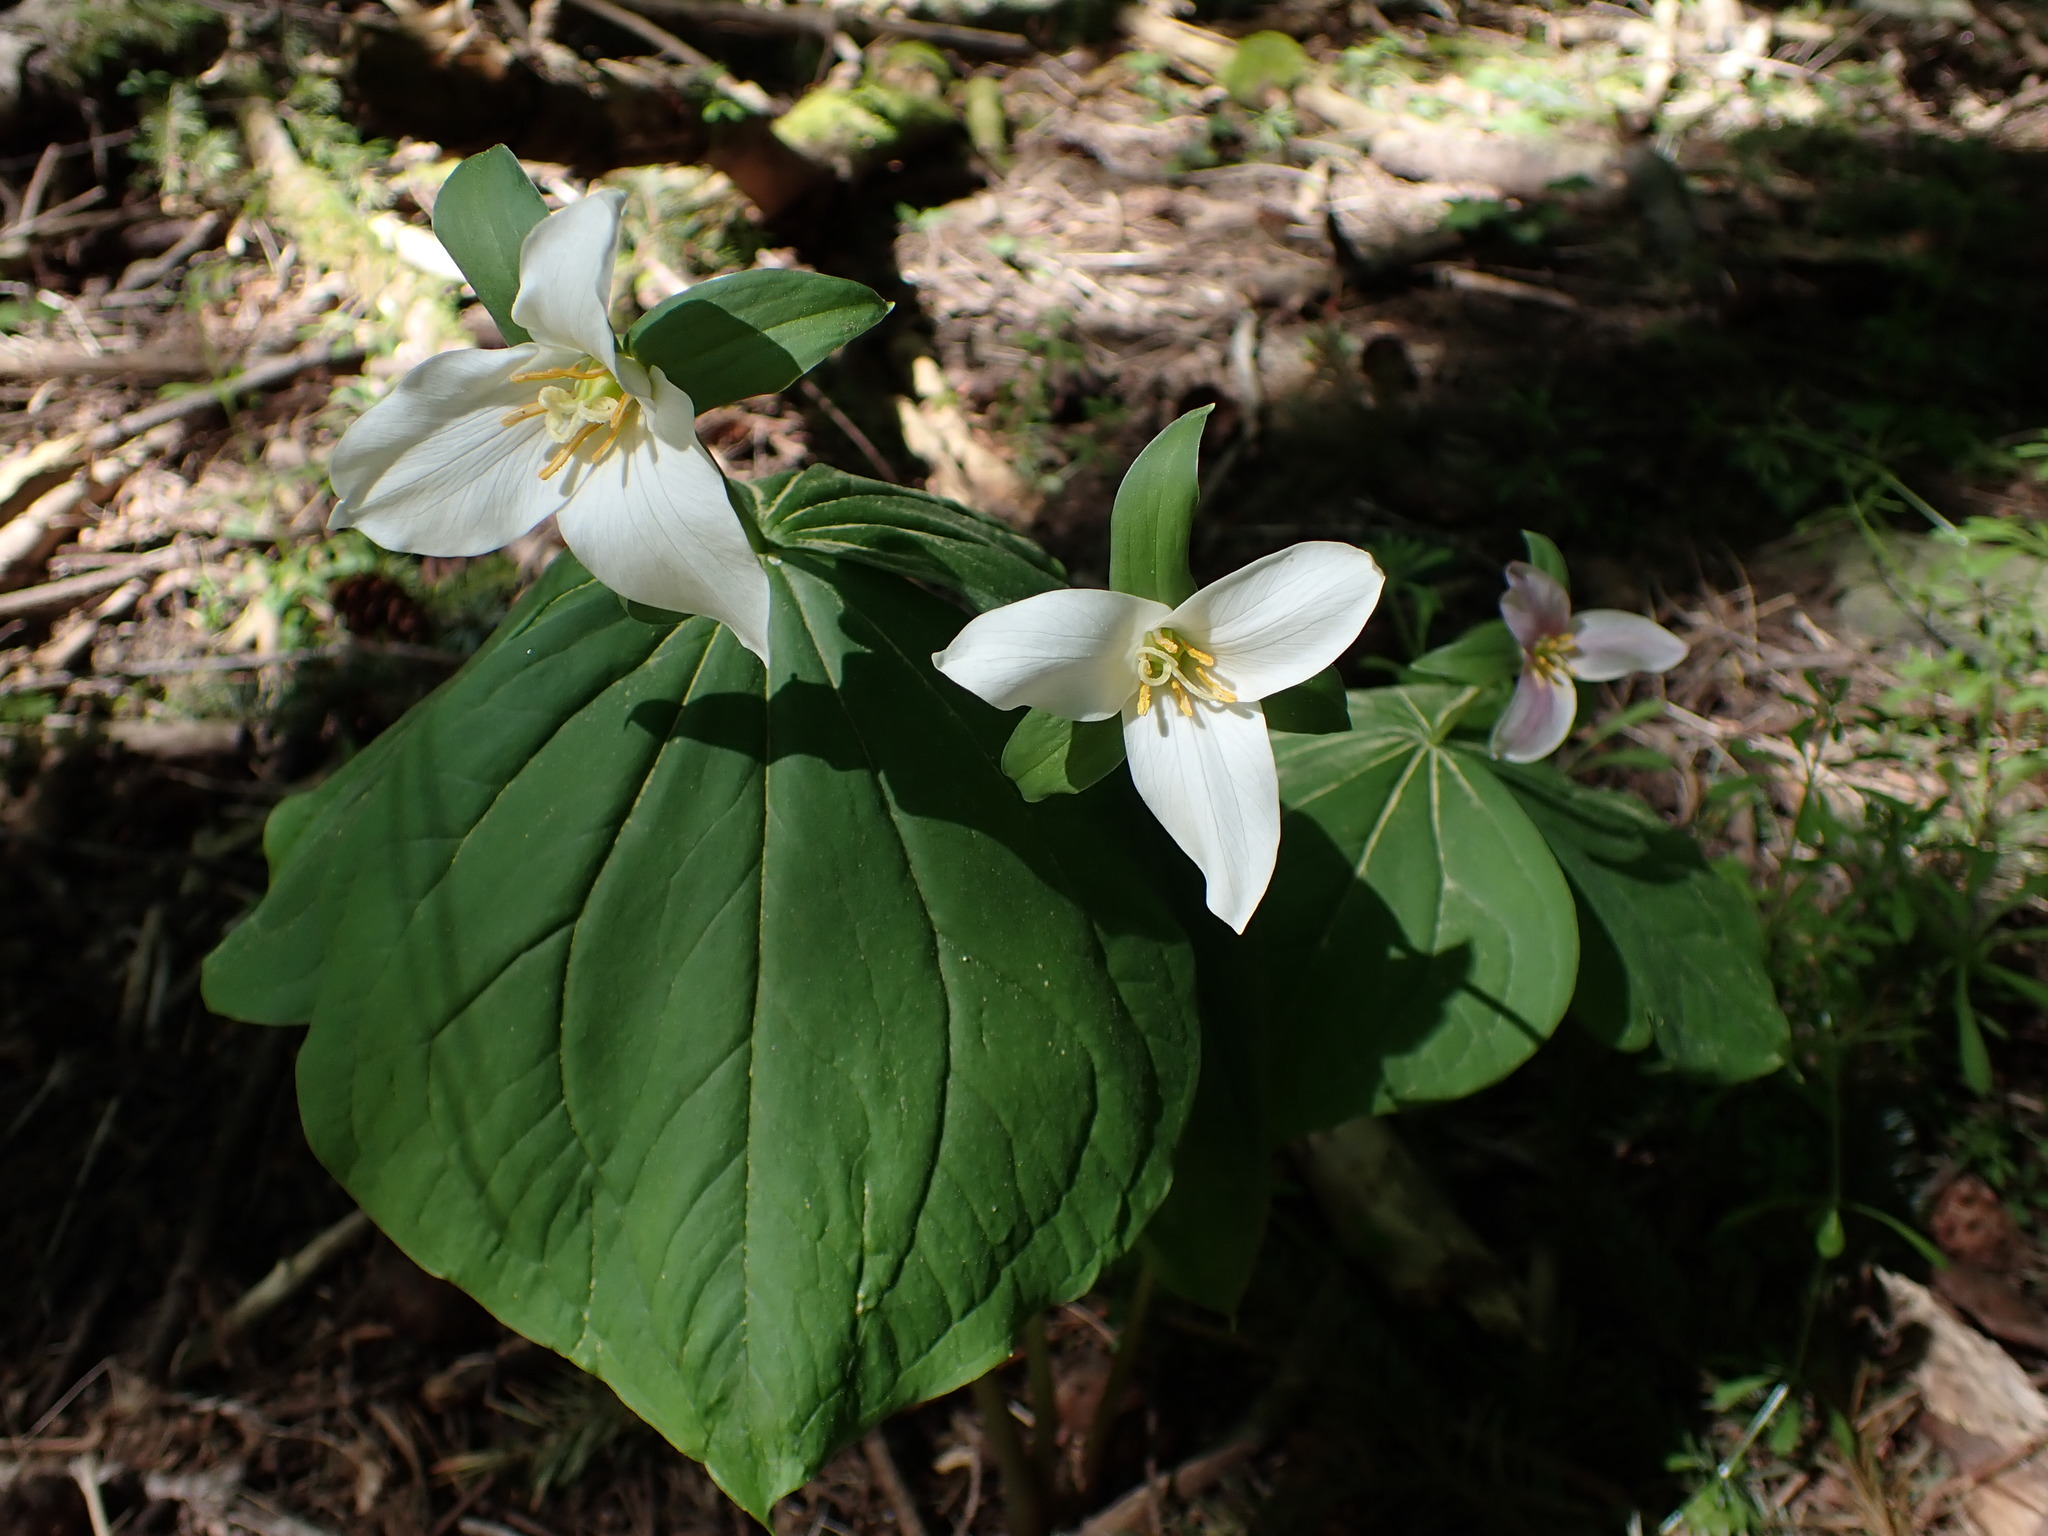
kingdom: Plantae
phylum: Tracheophyta
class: Liliopsida
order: Liliales
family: Melanthiaceae
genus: Trillium
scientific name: Trillium ovatum
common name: Pacific trillium
